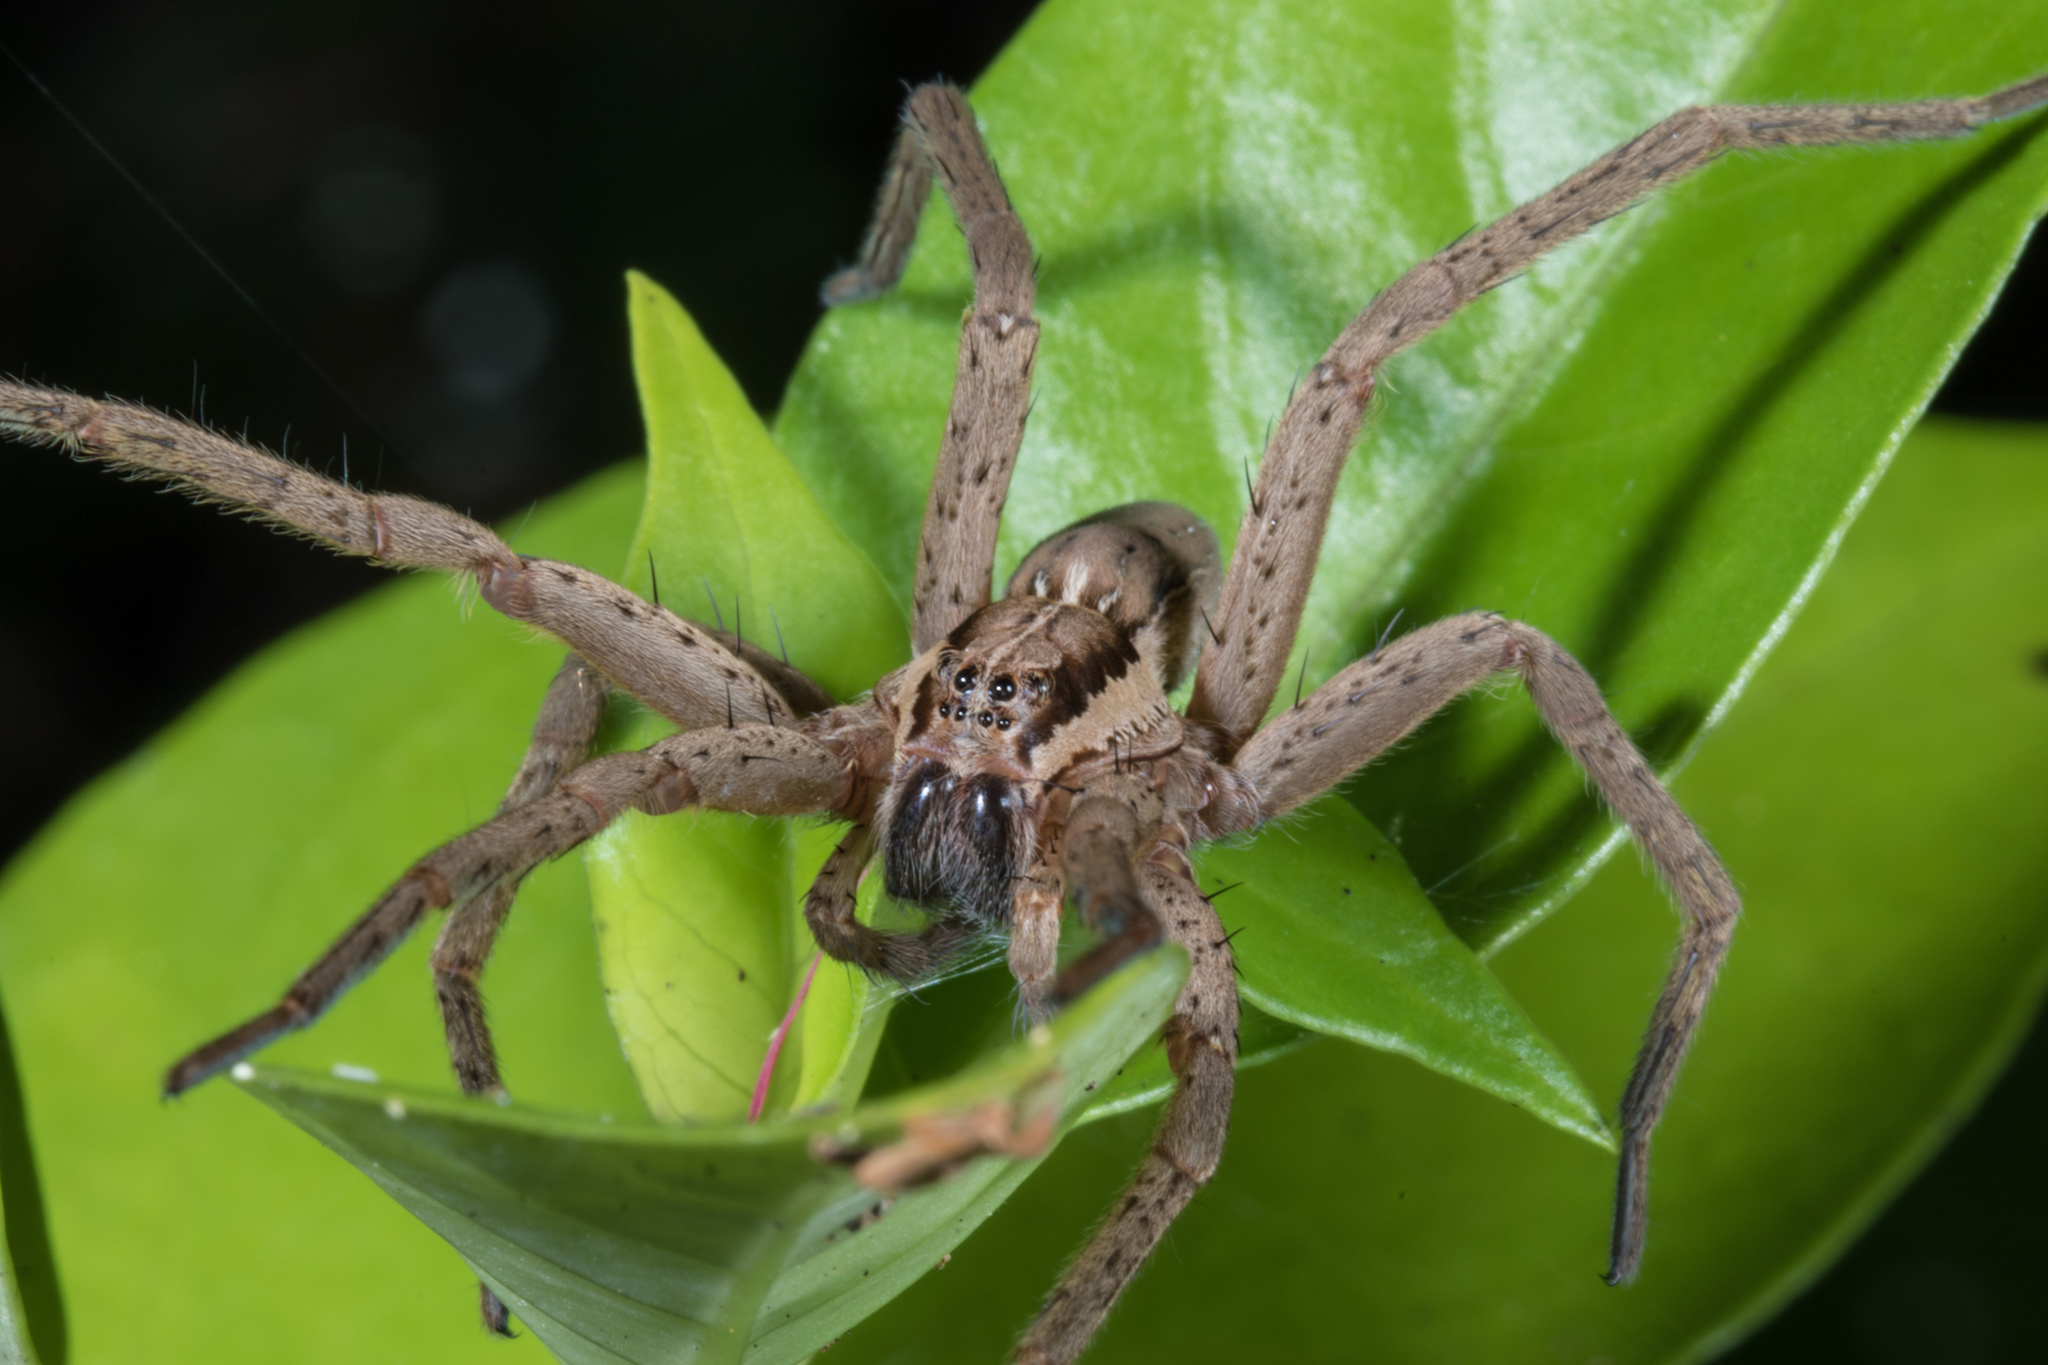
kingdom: Animalia
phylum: Arthropoda
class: Arachnida
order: Araneae
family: Pisauridae
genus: Dolomedes
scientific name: Dolomedes minor
